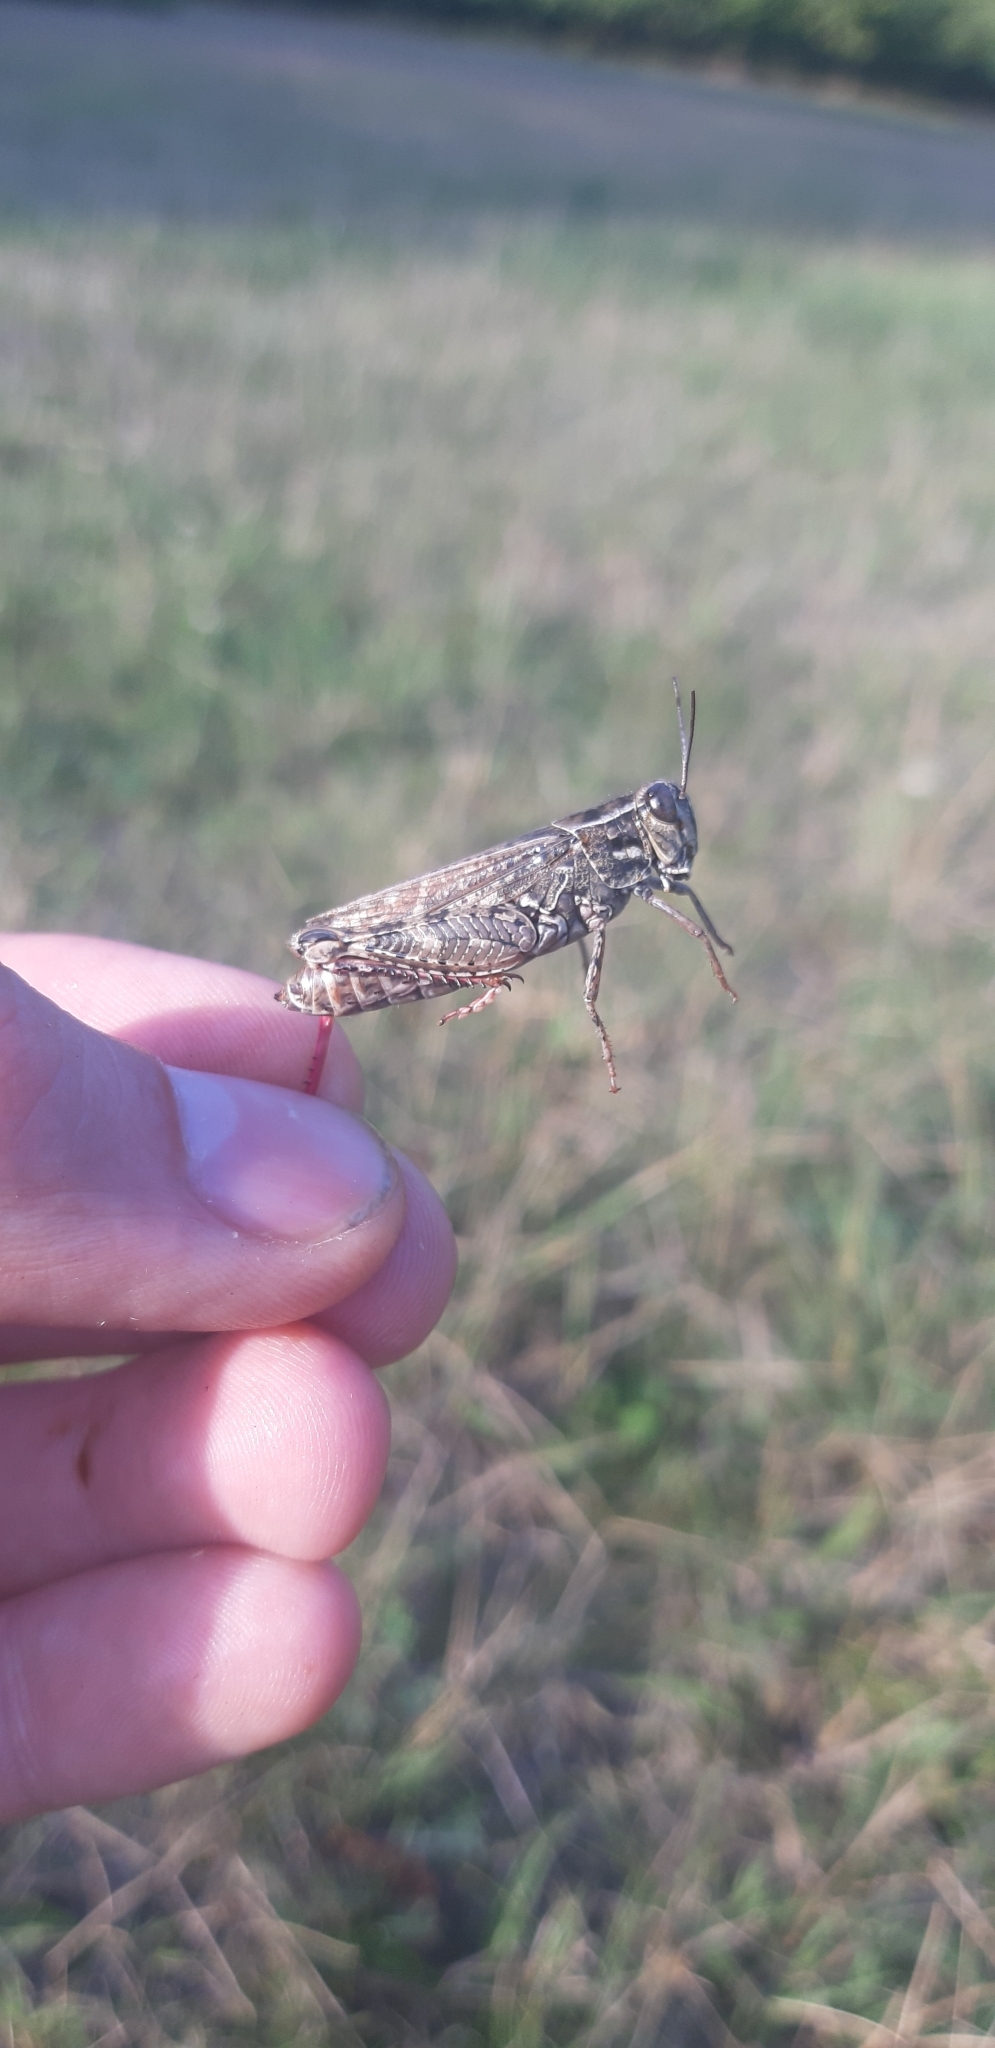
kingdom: Animalia
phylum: Arthropoda
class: Insecta
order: Orthoptera
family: Acrididae
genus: Calliptamus
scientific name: Calliptamus italicus
